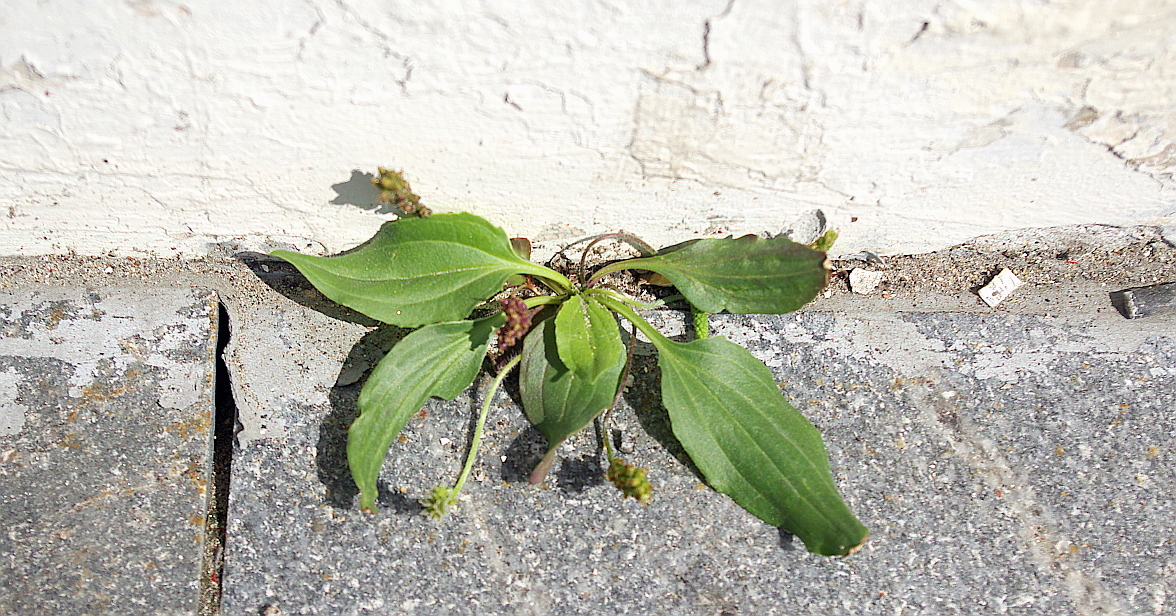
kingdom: Plantae
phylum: Tracheophyta
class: Magnoliopsida
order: Lamiales
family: Plantaginaceae
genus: Plantago
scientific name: Plantago uliginosa
